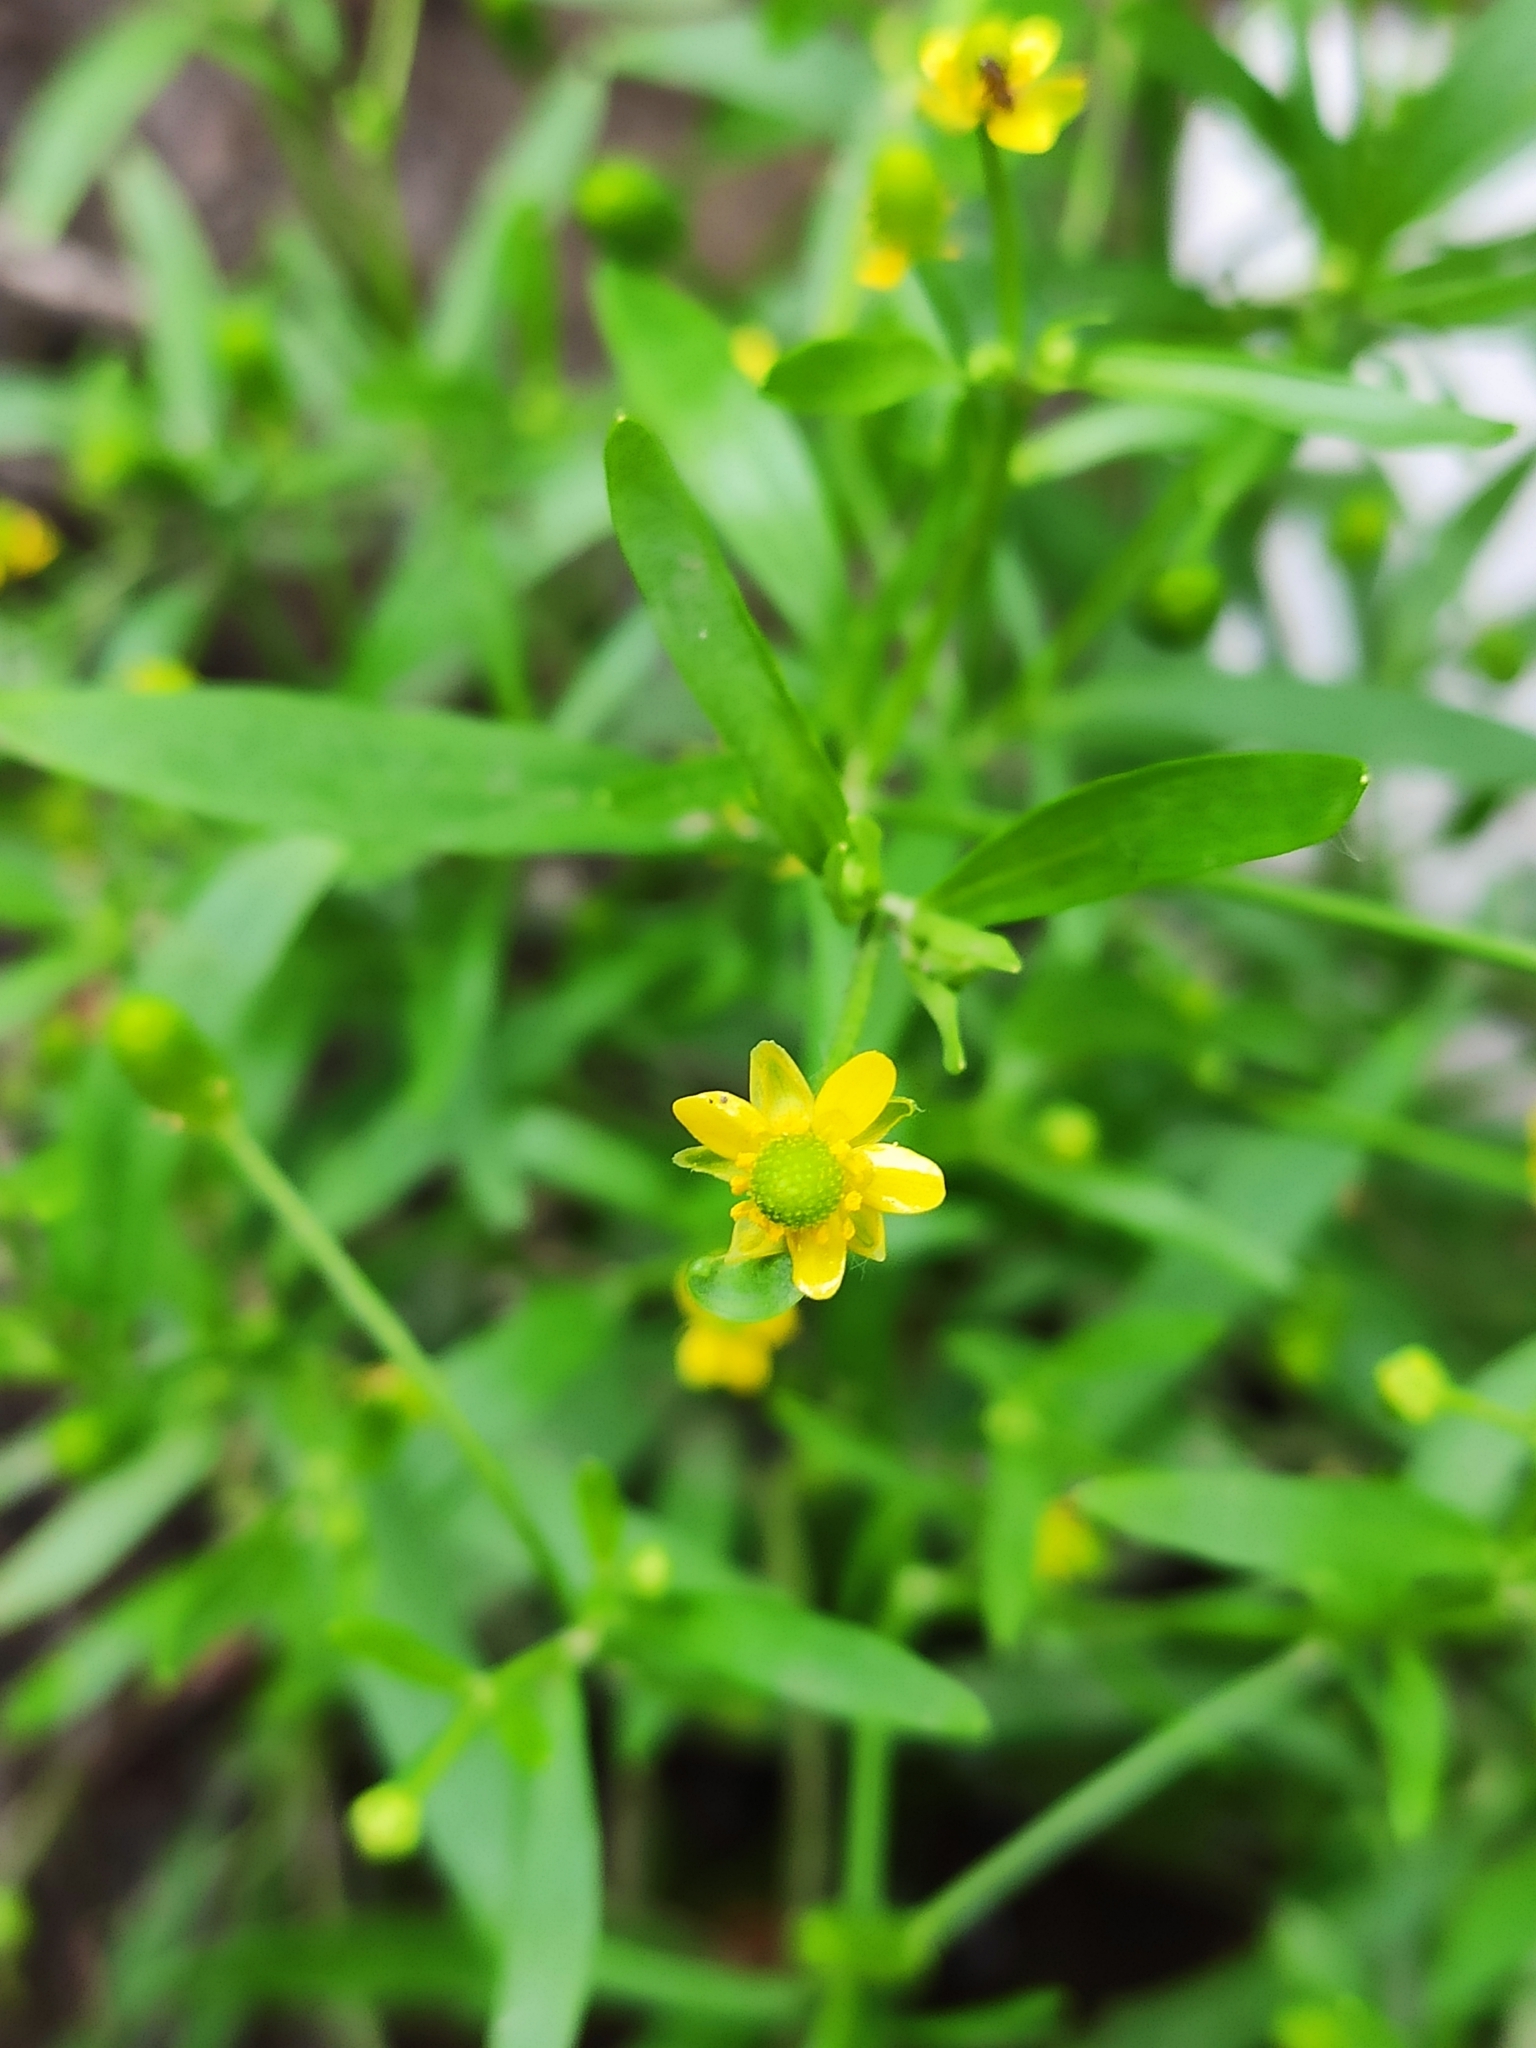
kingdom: Plantae
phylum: Tracheophyta
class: Magnoliopsida
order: Ranunculales
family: Ranunculaceae
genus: Ranunculus
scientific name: Ranunculus sceleratus
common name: Celery-leaved buttercup
